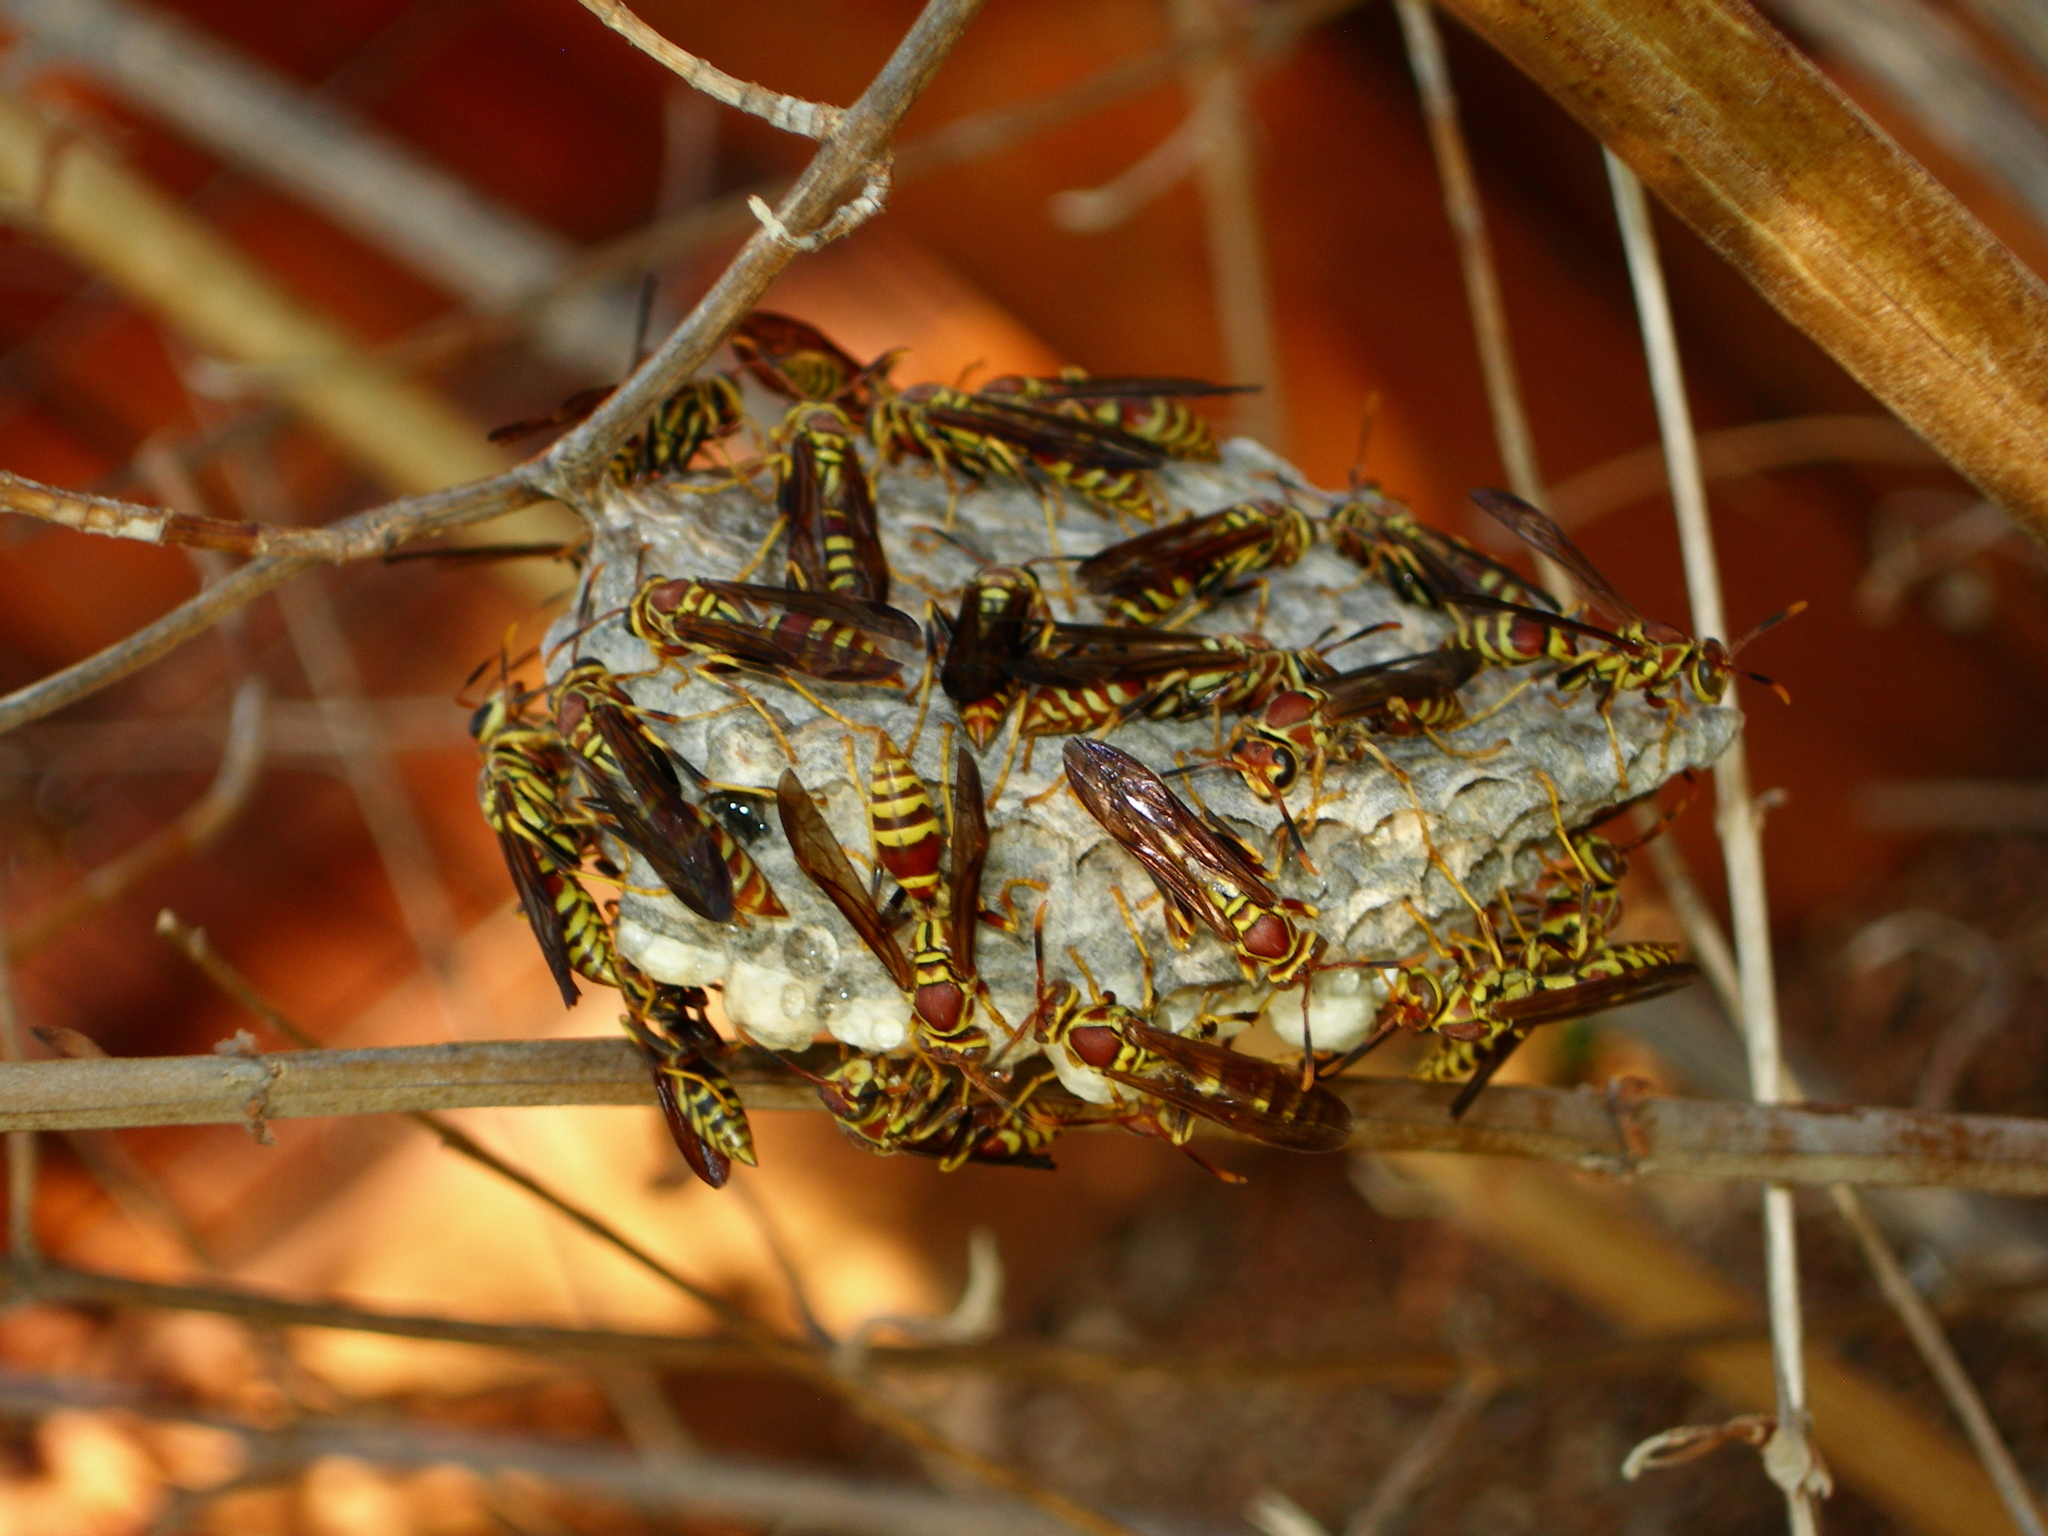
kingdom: Animalia
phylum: Arthropoda
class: Insecta
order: Hymenoptera
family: Eumenidae
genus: Polistes
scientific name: Polistes exclamans
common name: Paper wasp
